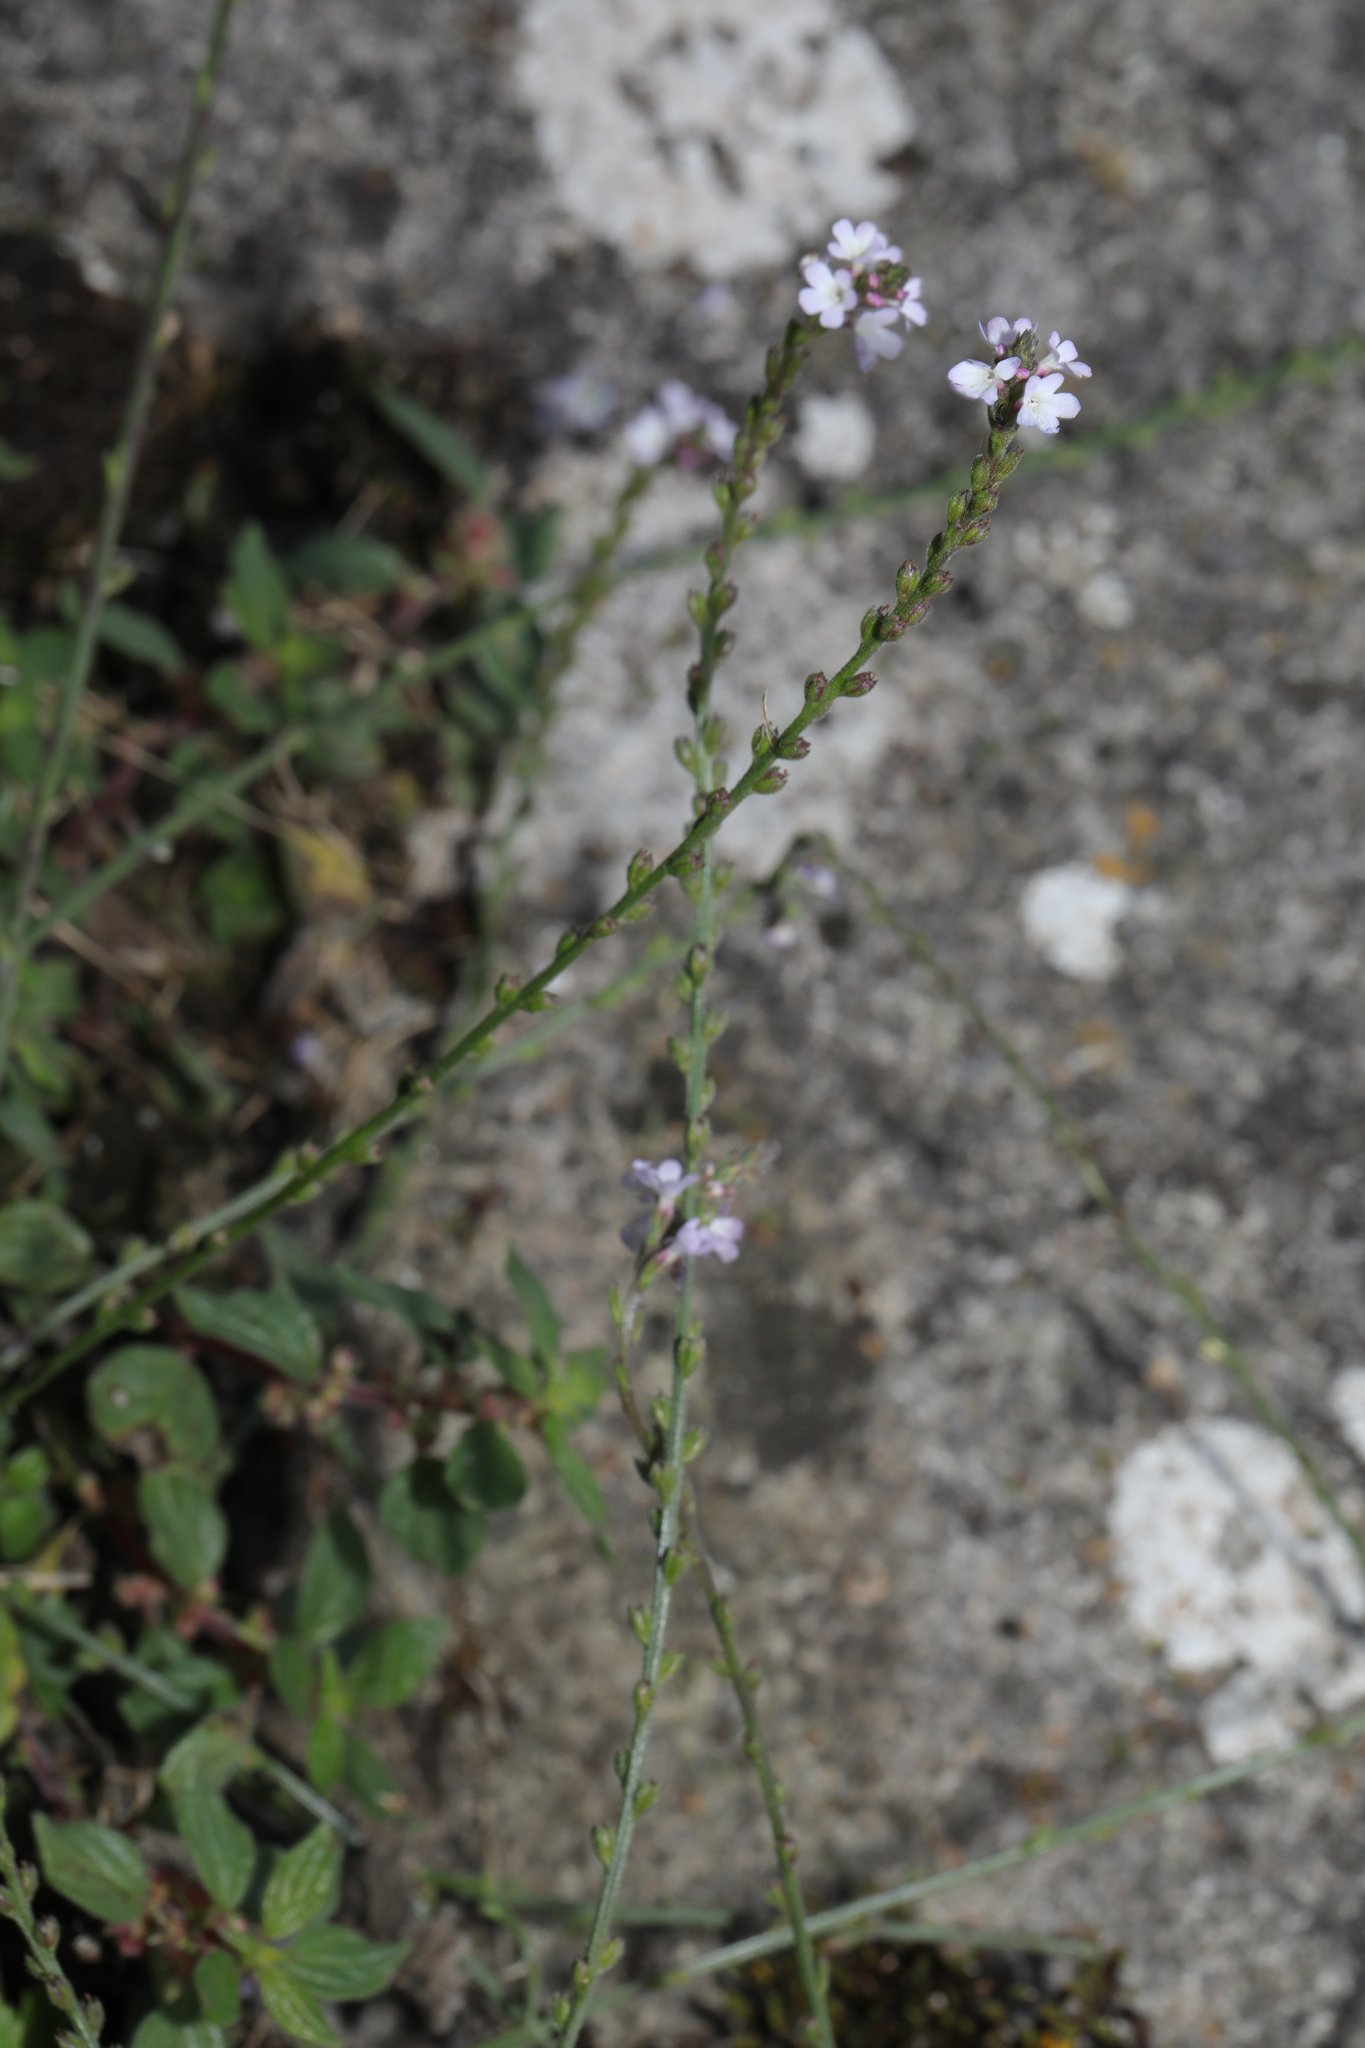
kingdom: Plantae
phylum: Tracheophyta
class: Magnoliopsida
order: Lamiales
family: Verbenaceae
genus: Verbena
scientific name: Verbena officinalis
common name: Vervain
